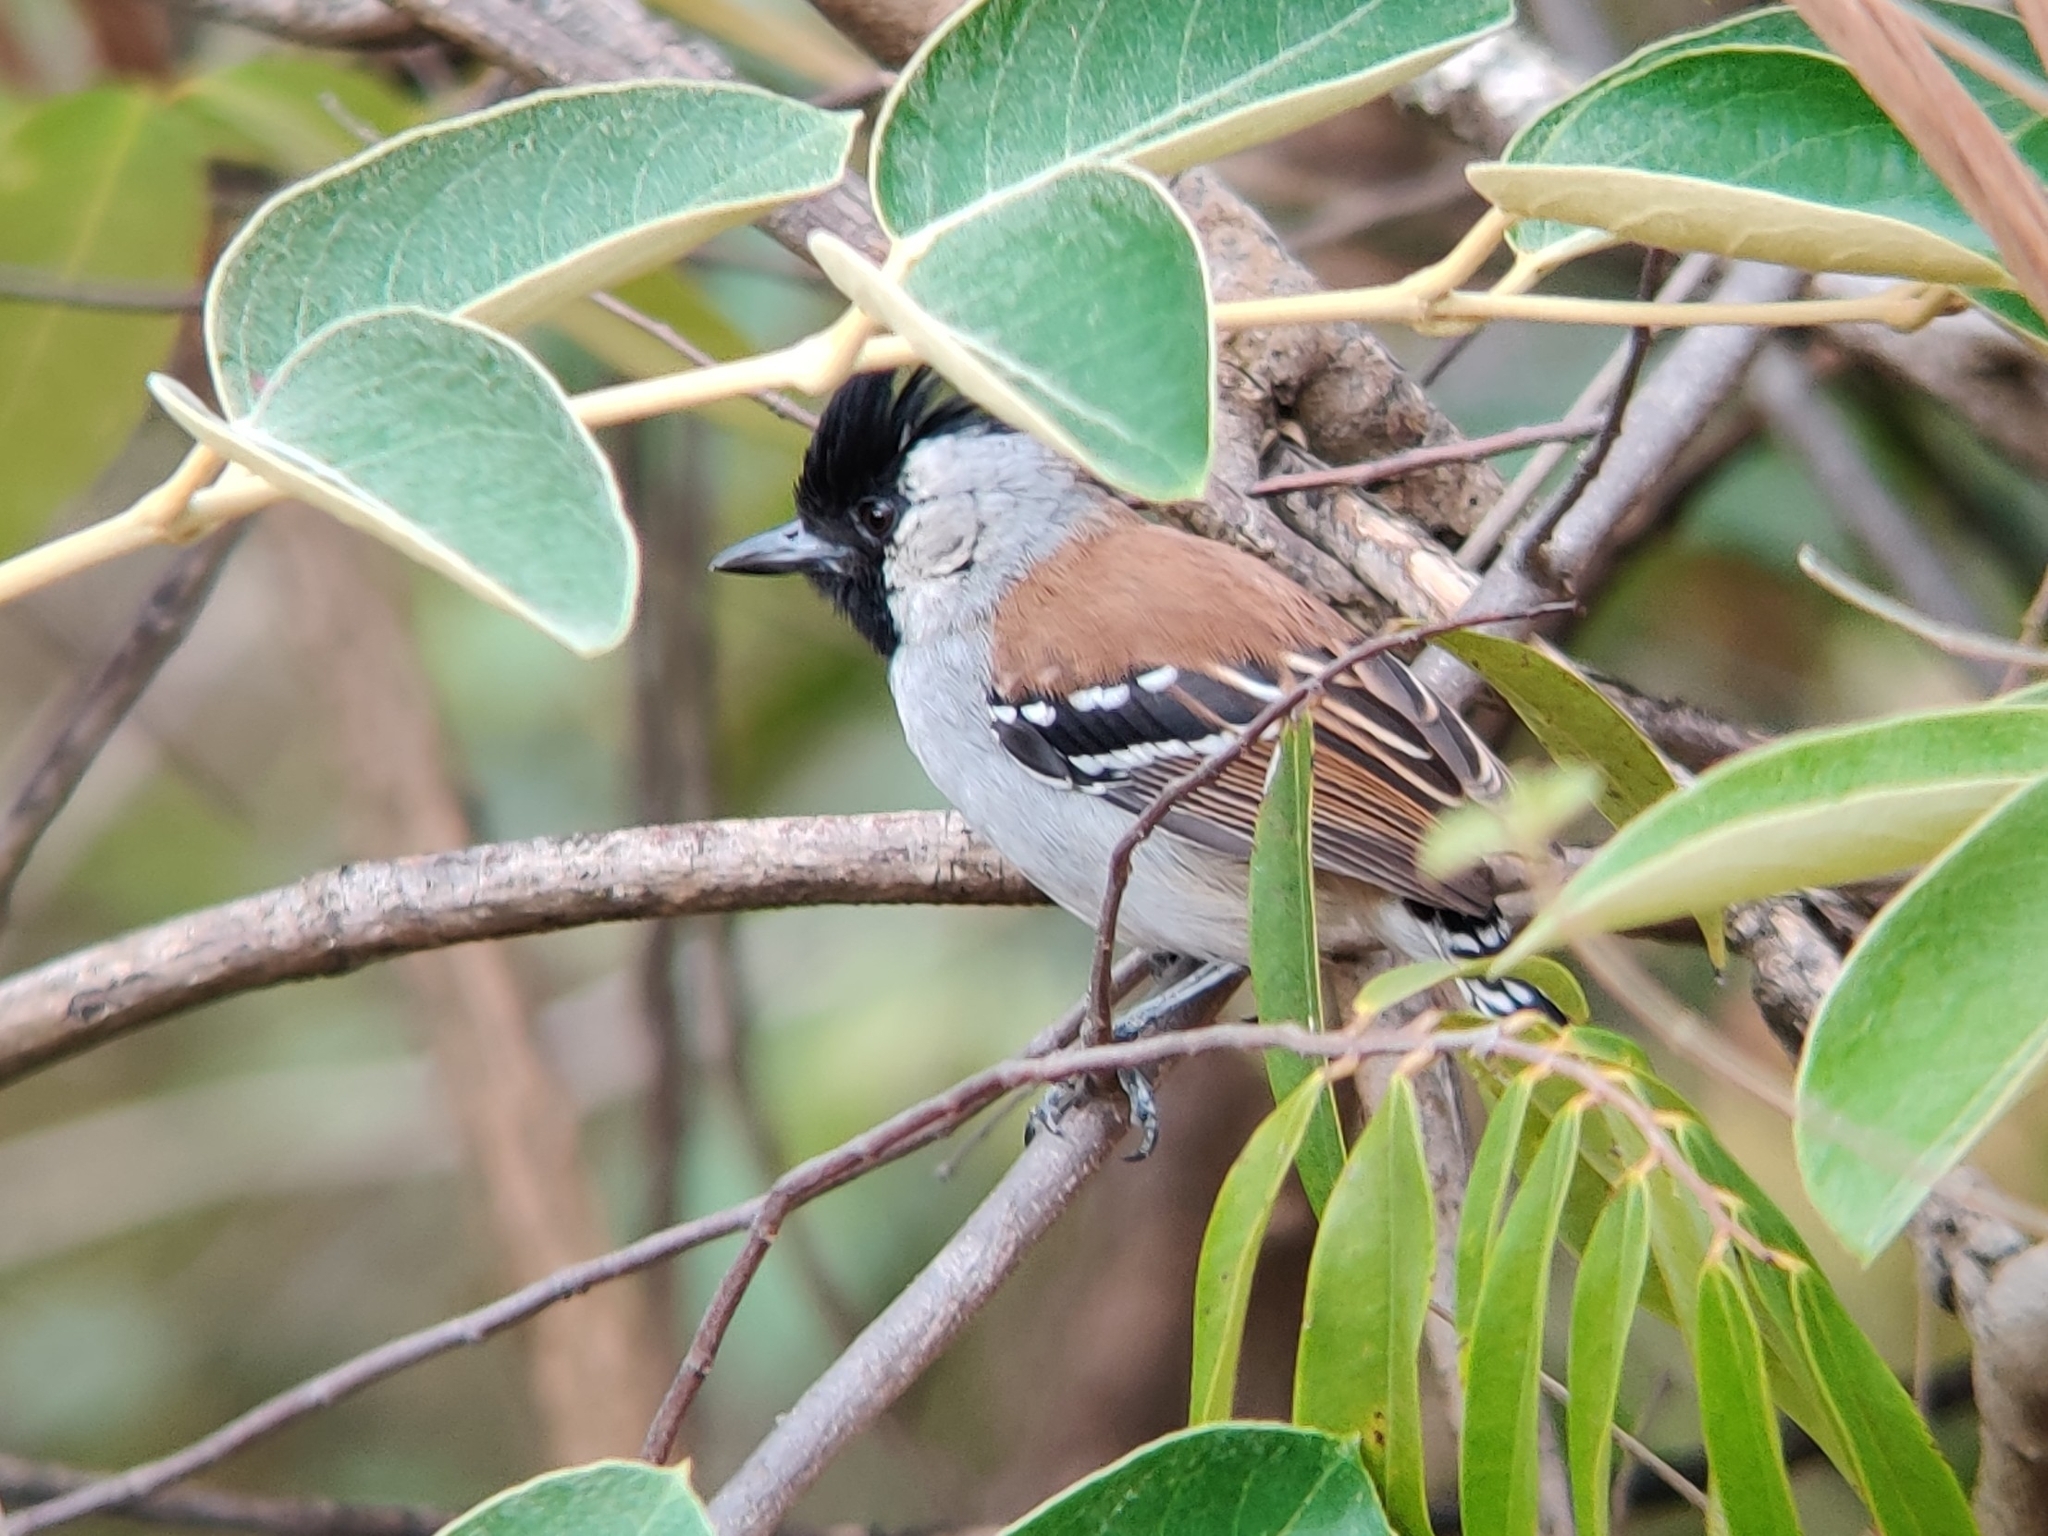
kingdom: Animalia
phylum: Chordata
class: Aves
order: Passeriformes
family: Thamnophilidae
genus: Sakesphorus
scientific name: Sakesphorus cristatus
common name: Silvery-cheeked antshrike
